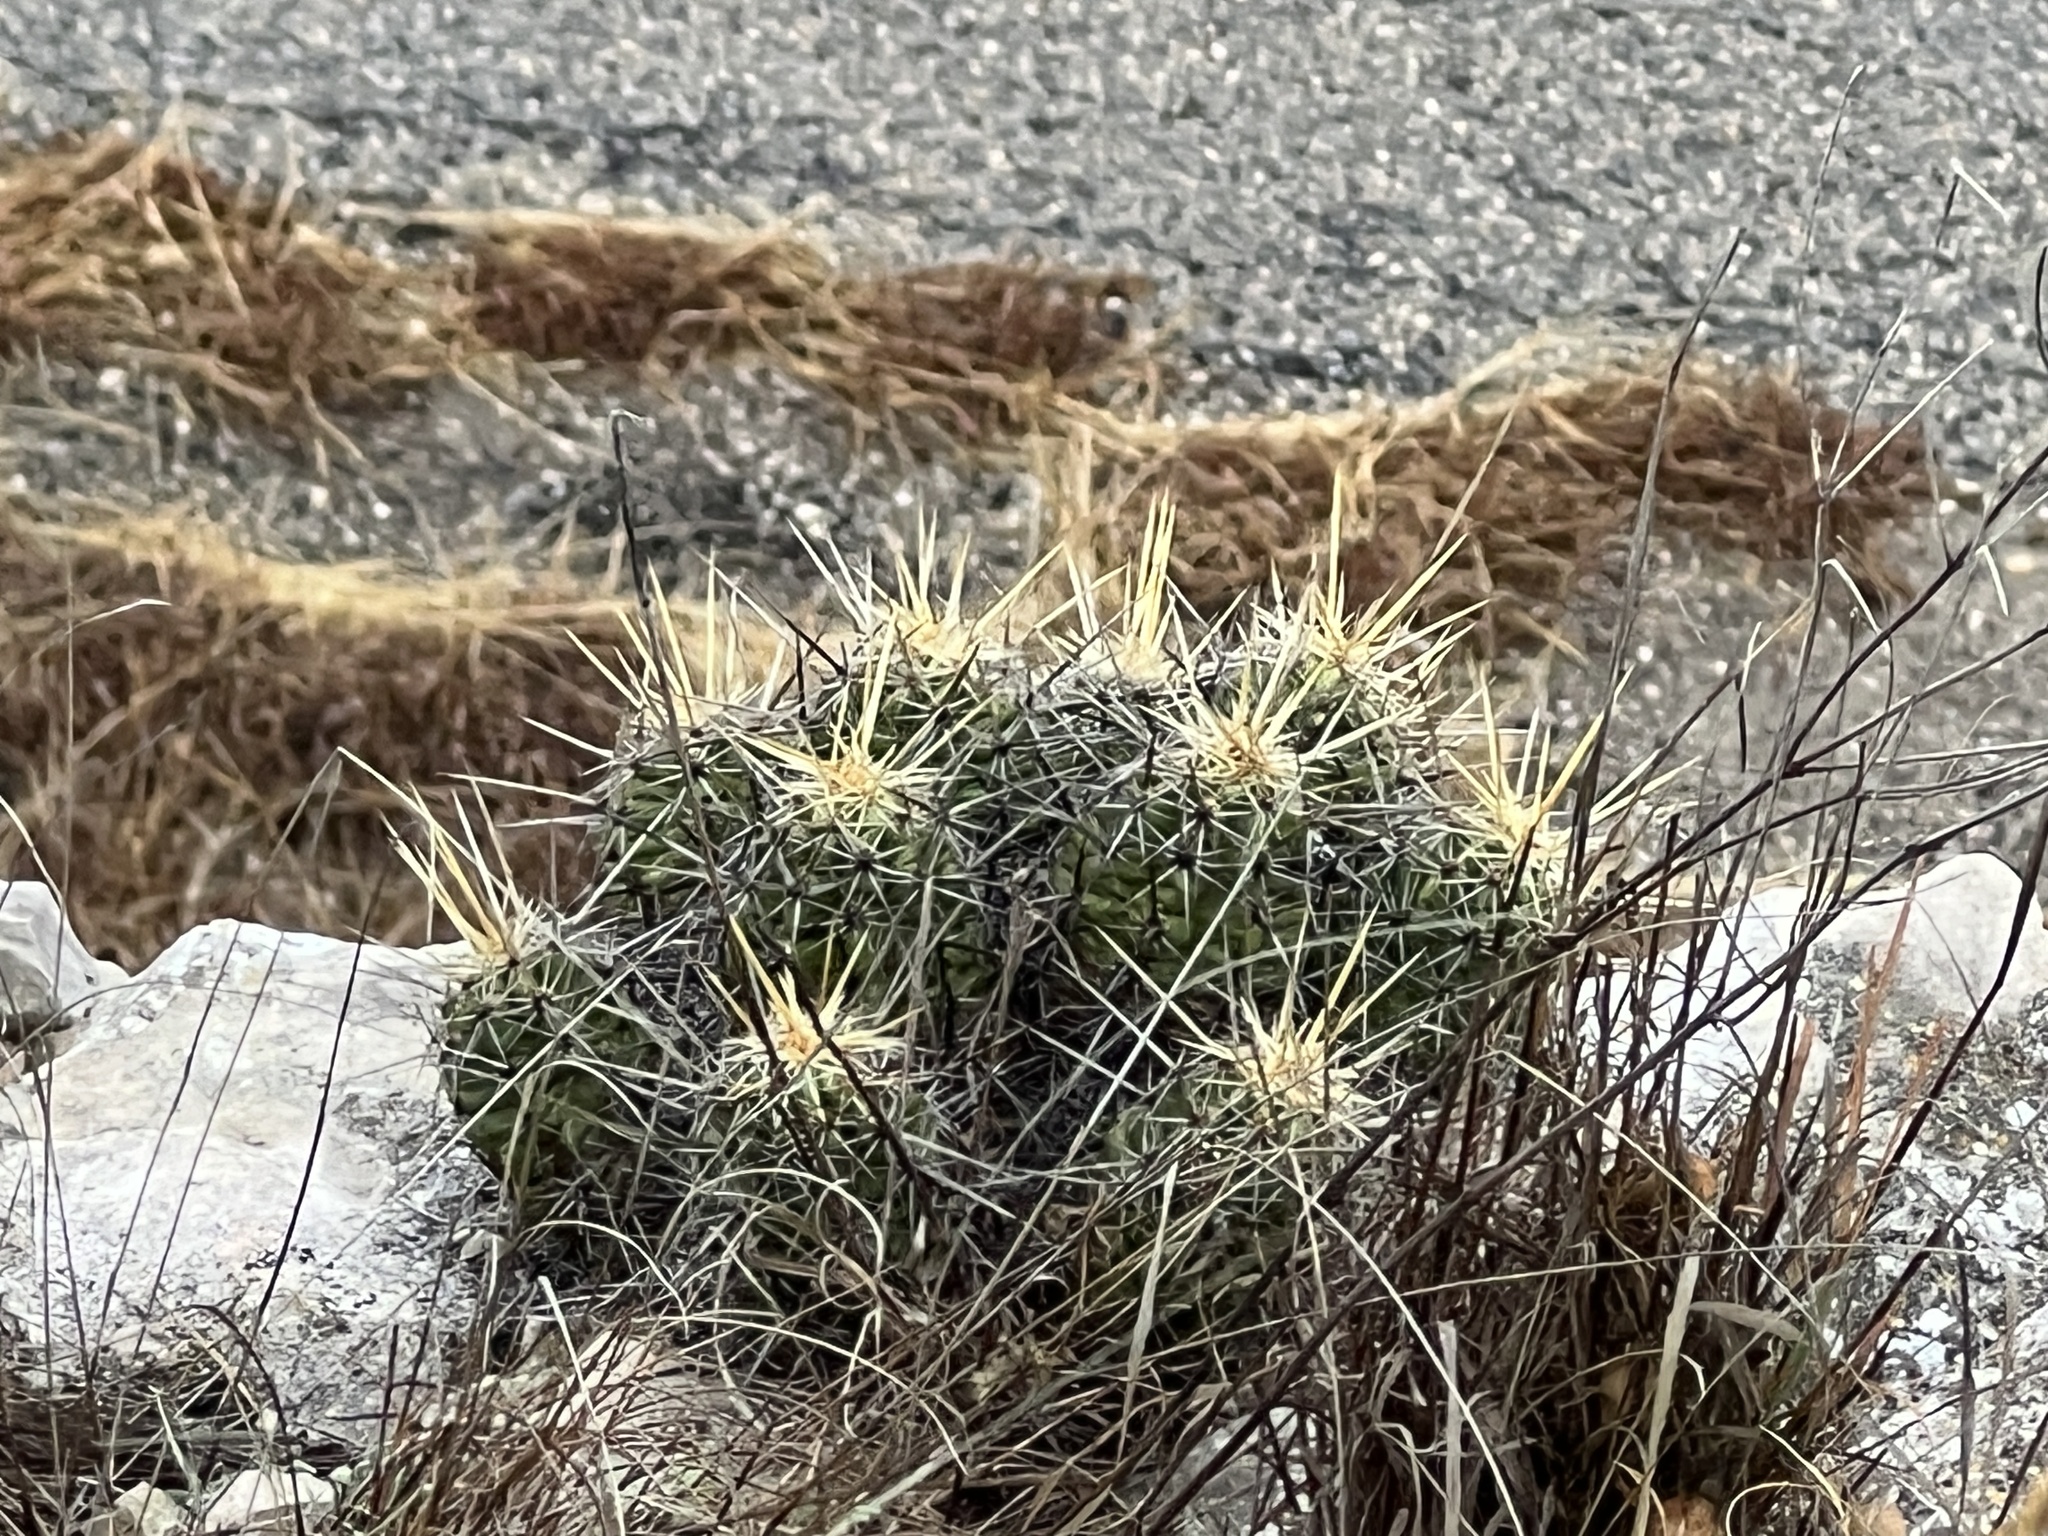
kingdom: Plantae
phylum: Tracheophyta
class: Magnoliopsida
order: Caryophyllales
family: Cactaceae
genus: Echinocereus
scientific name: Echinocereus enneacanthus
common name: Pitaya
